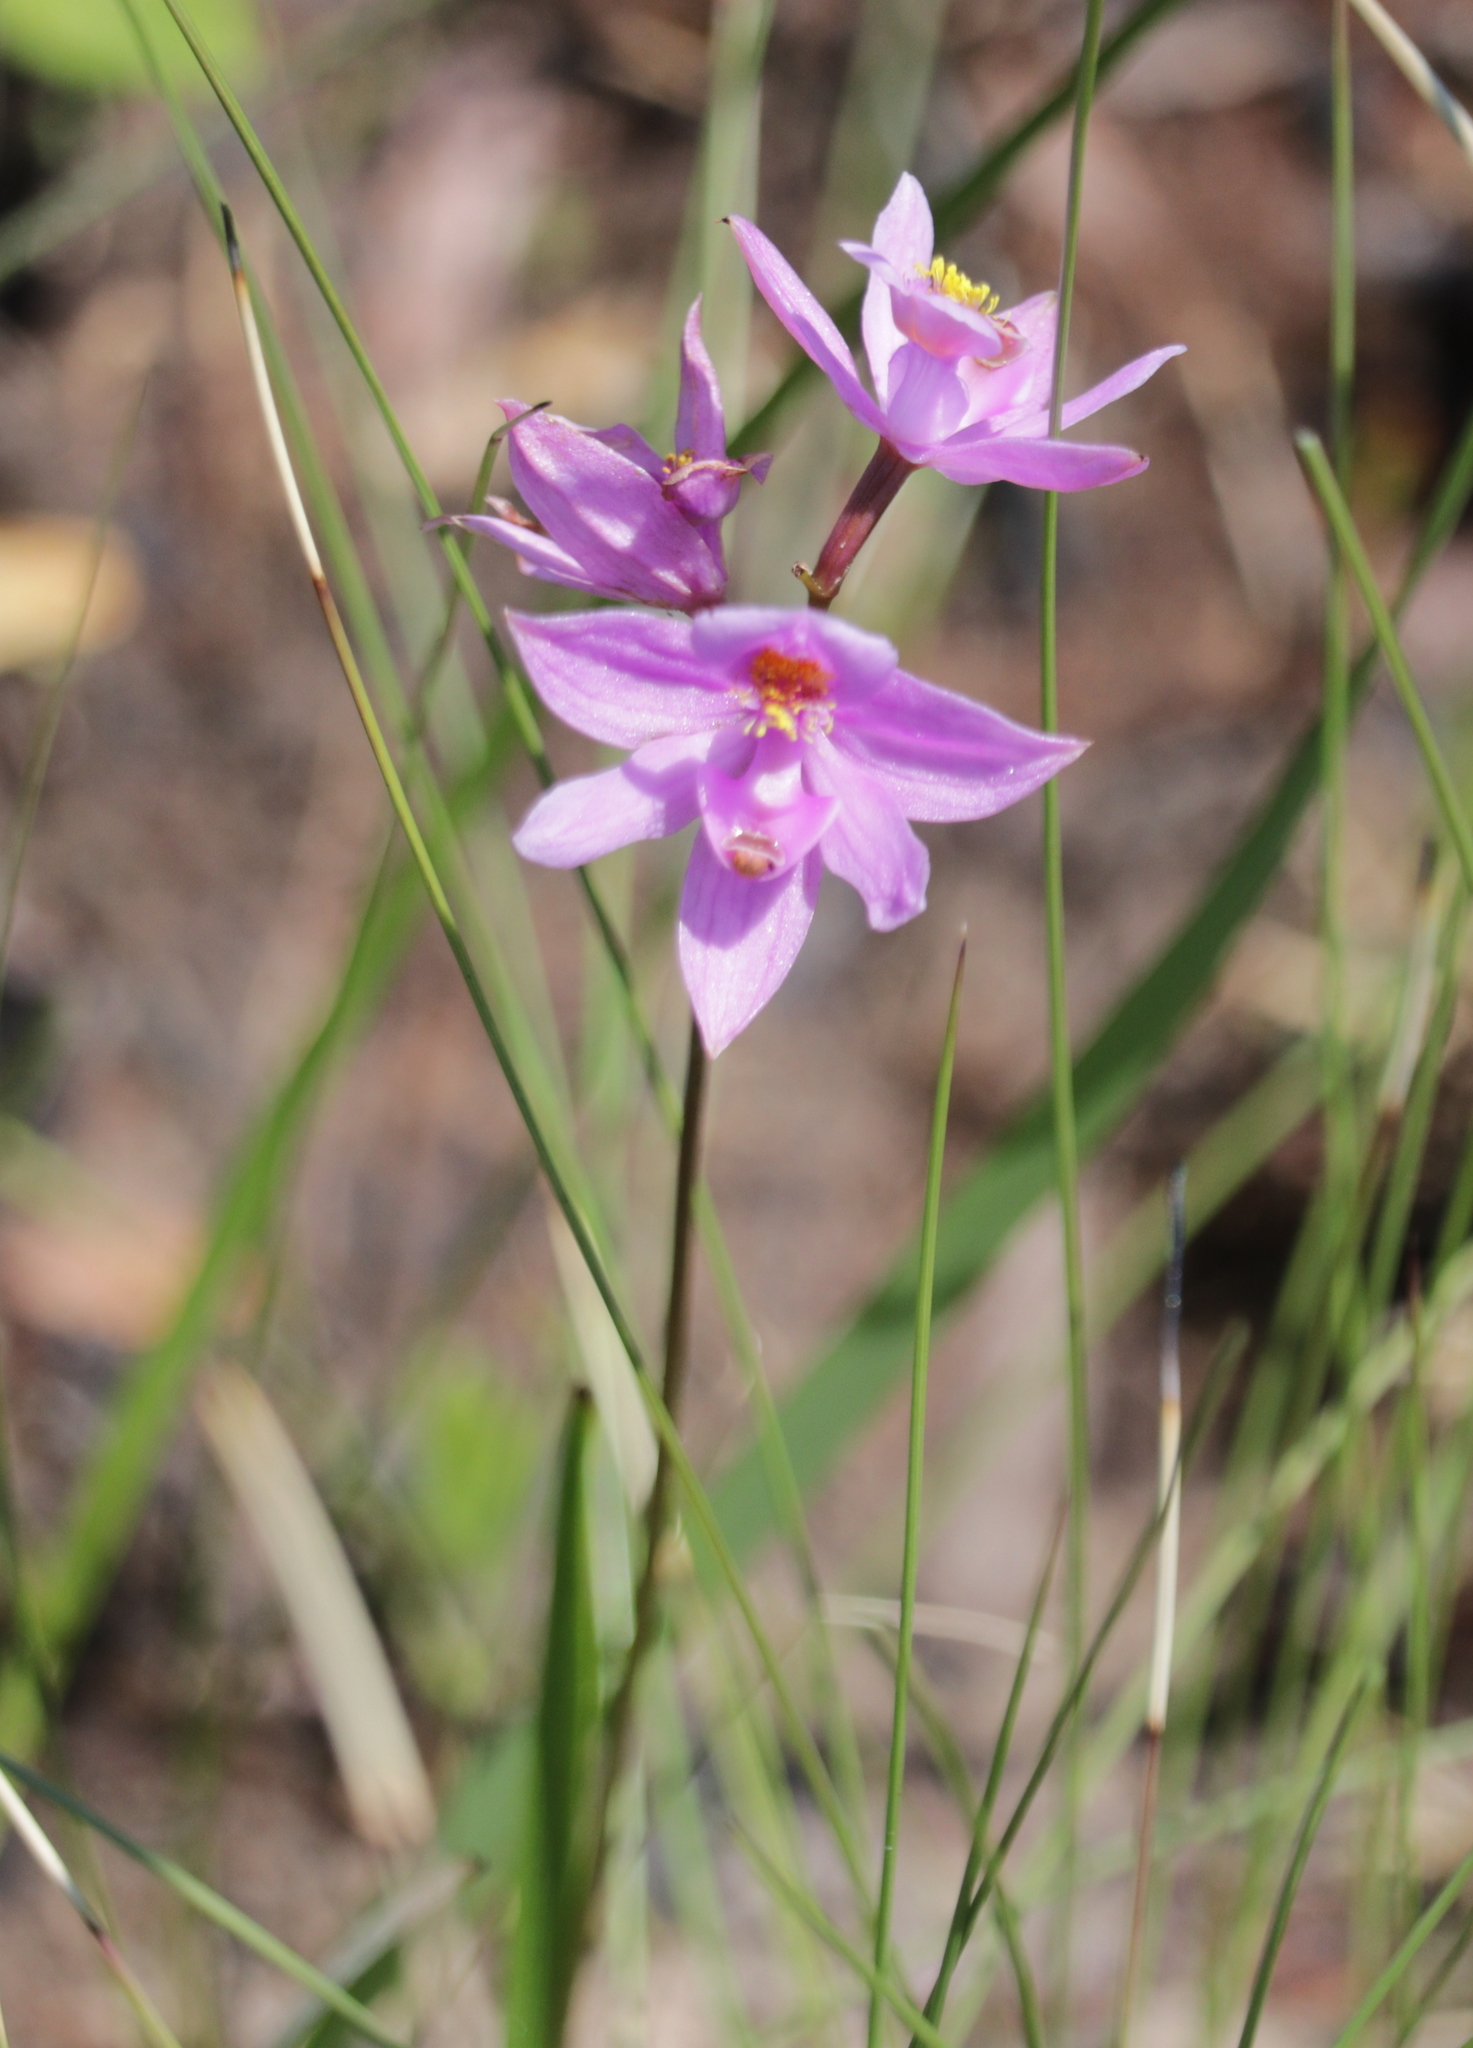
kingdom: Plantae
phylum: Tracheophyta
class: Liliopsida
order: Asparagales
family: Orchidaceae
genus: Calopogon
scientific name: Calopogon barbatus
